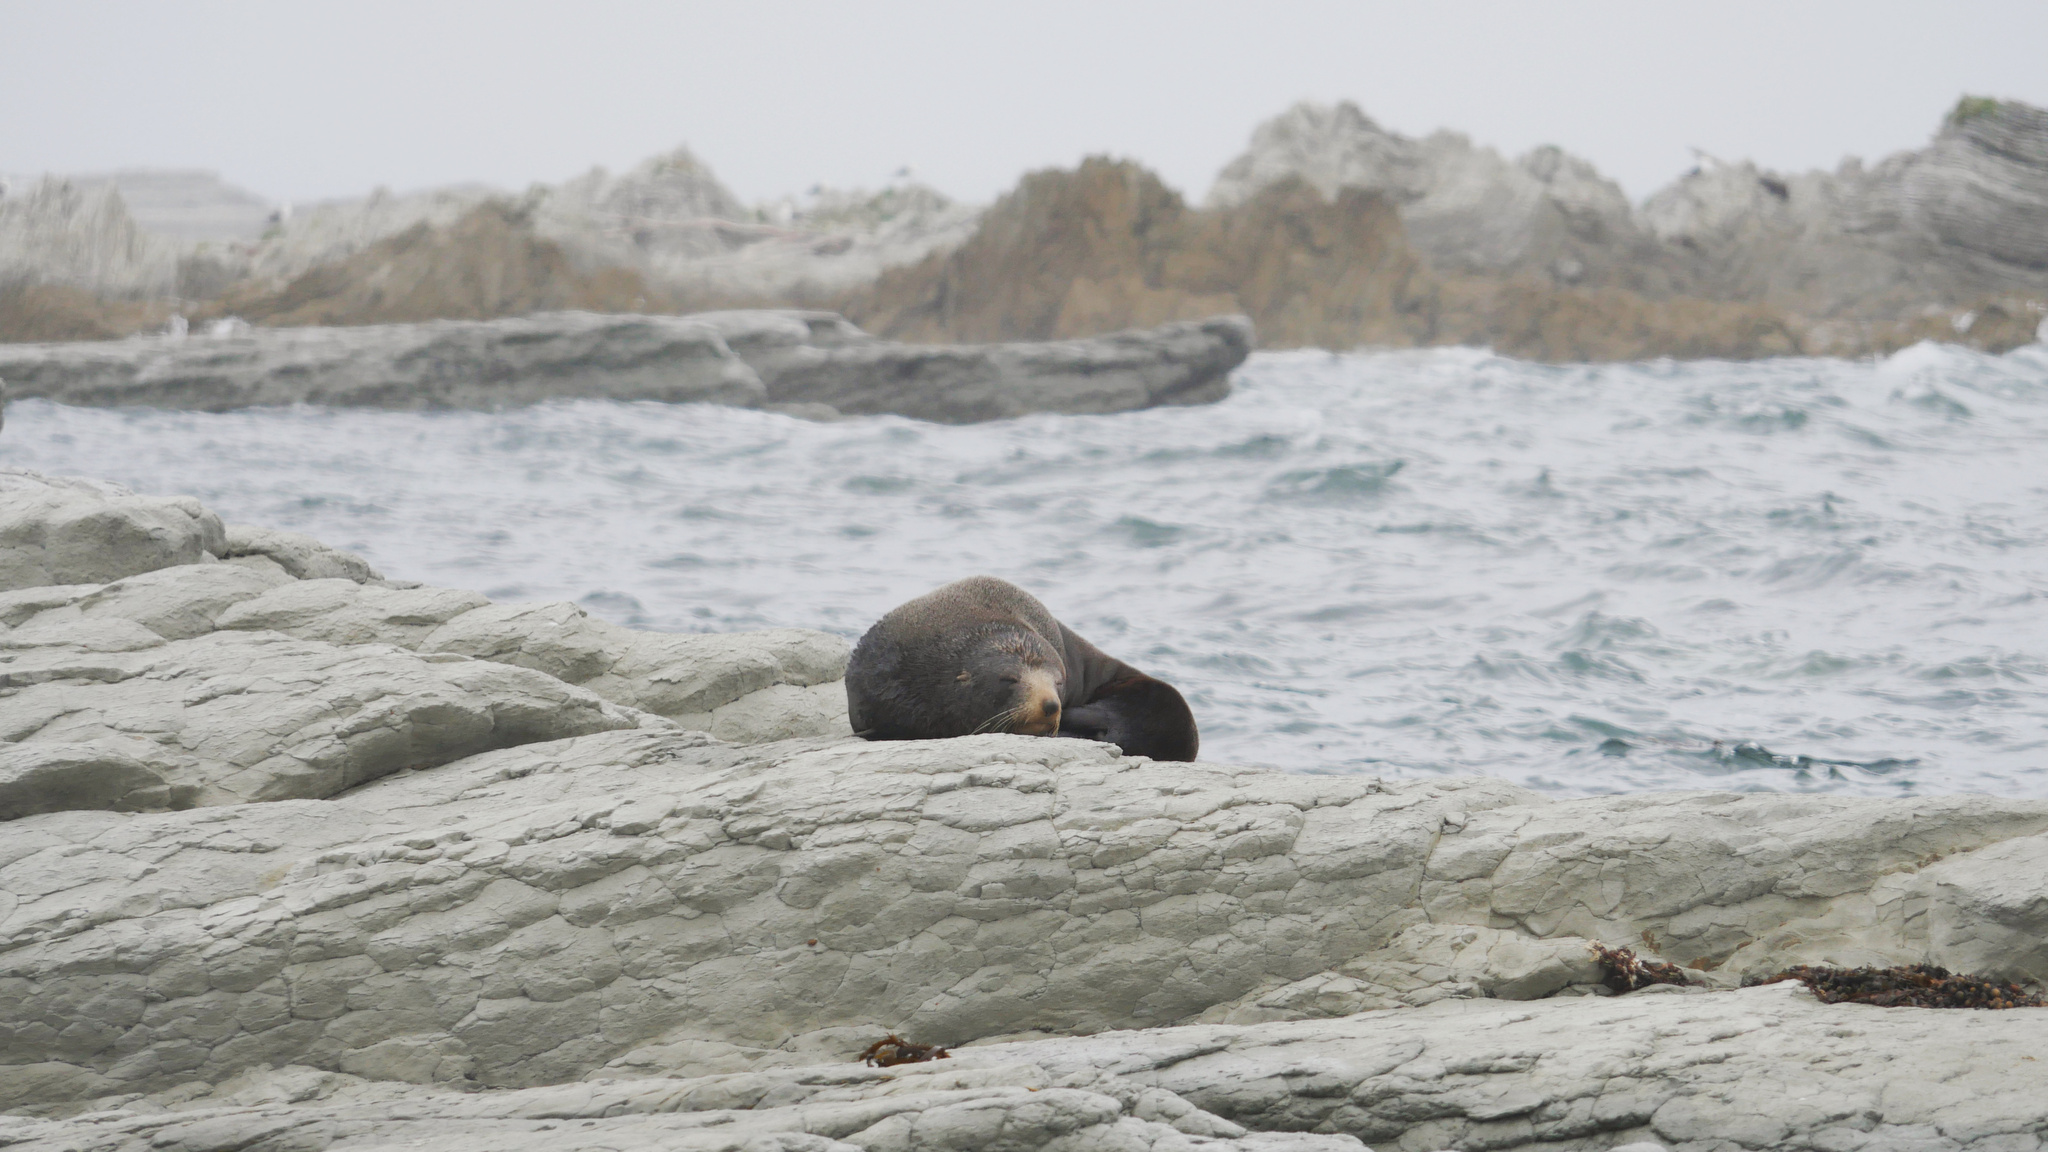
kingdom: Animalia
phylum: Chordata
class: Mammalia
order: Carnivora
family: Otariidae
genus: Arctocephalus
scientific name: Arctocephalus forsteri
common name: New zealand fur seal
